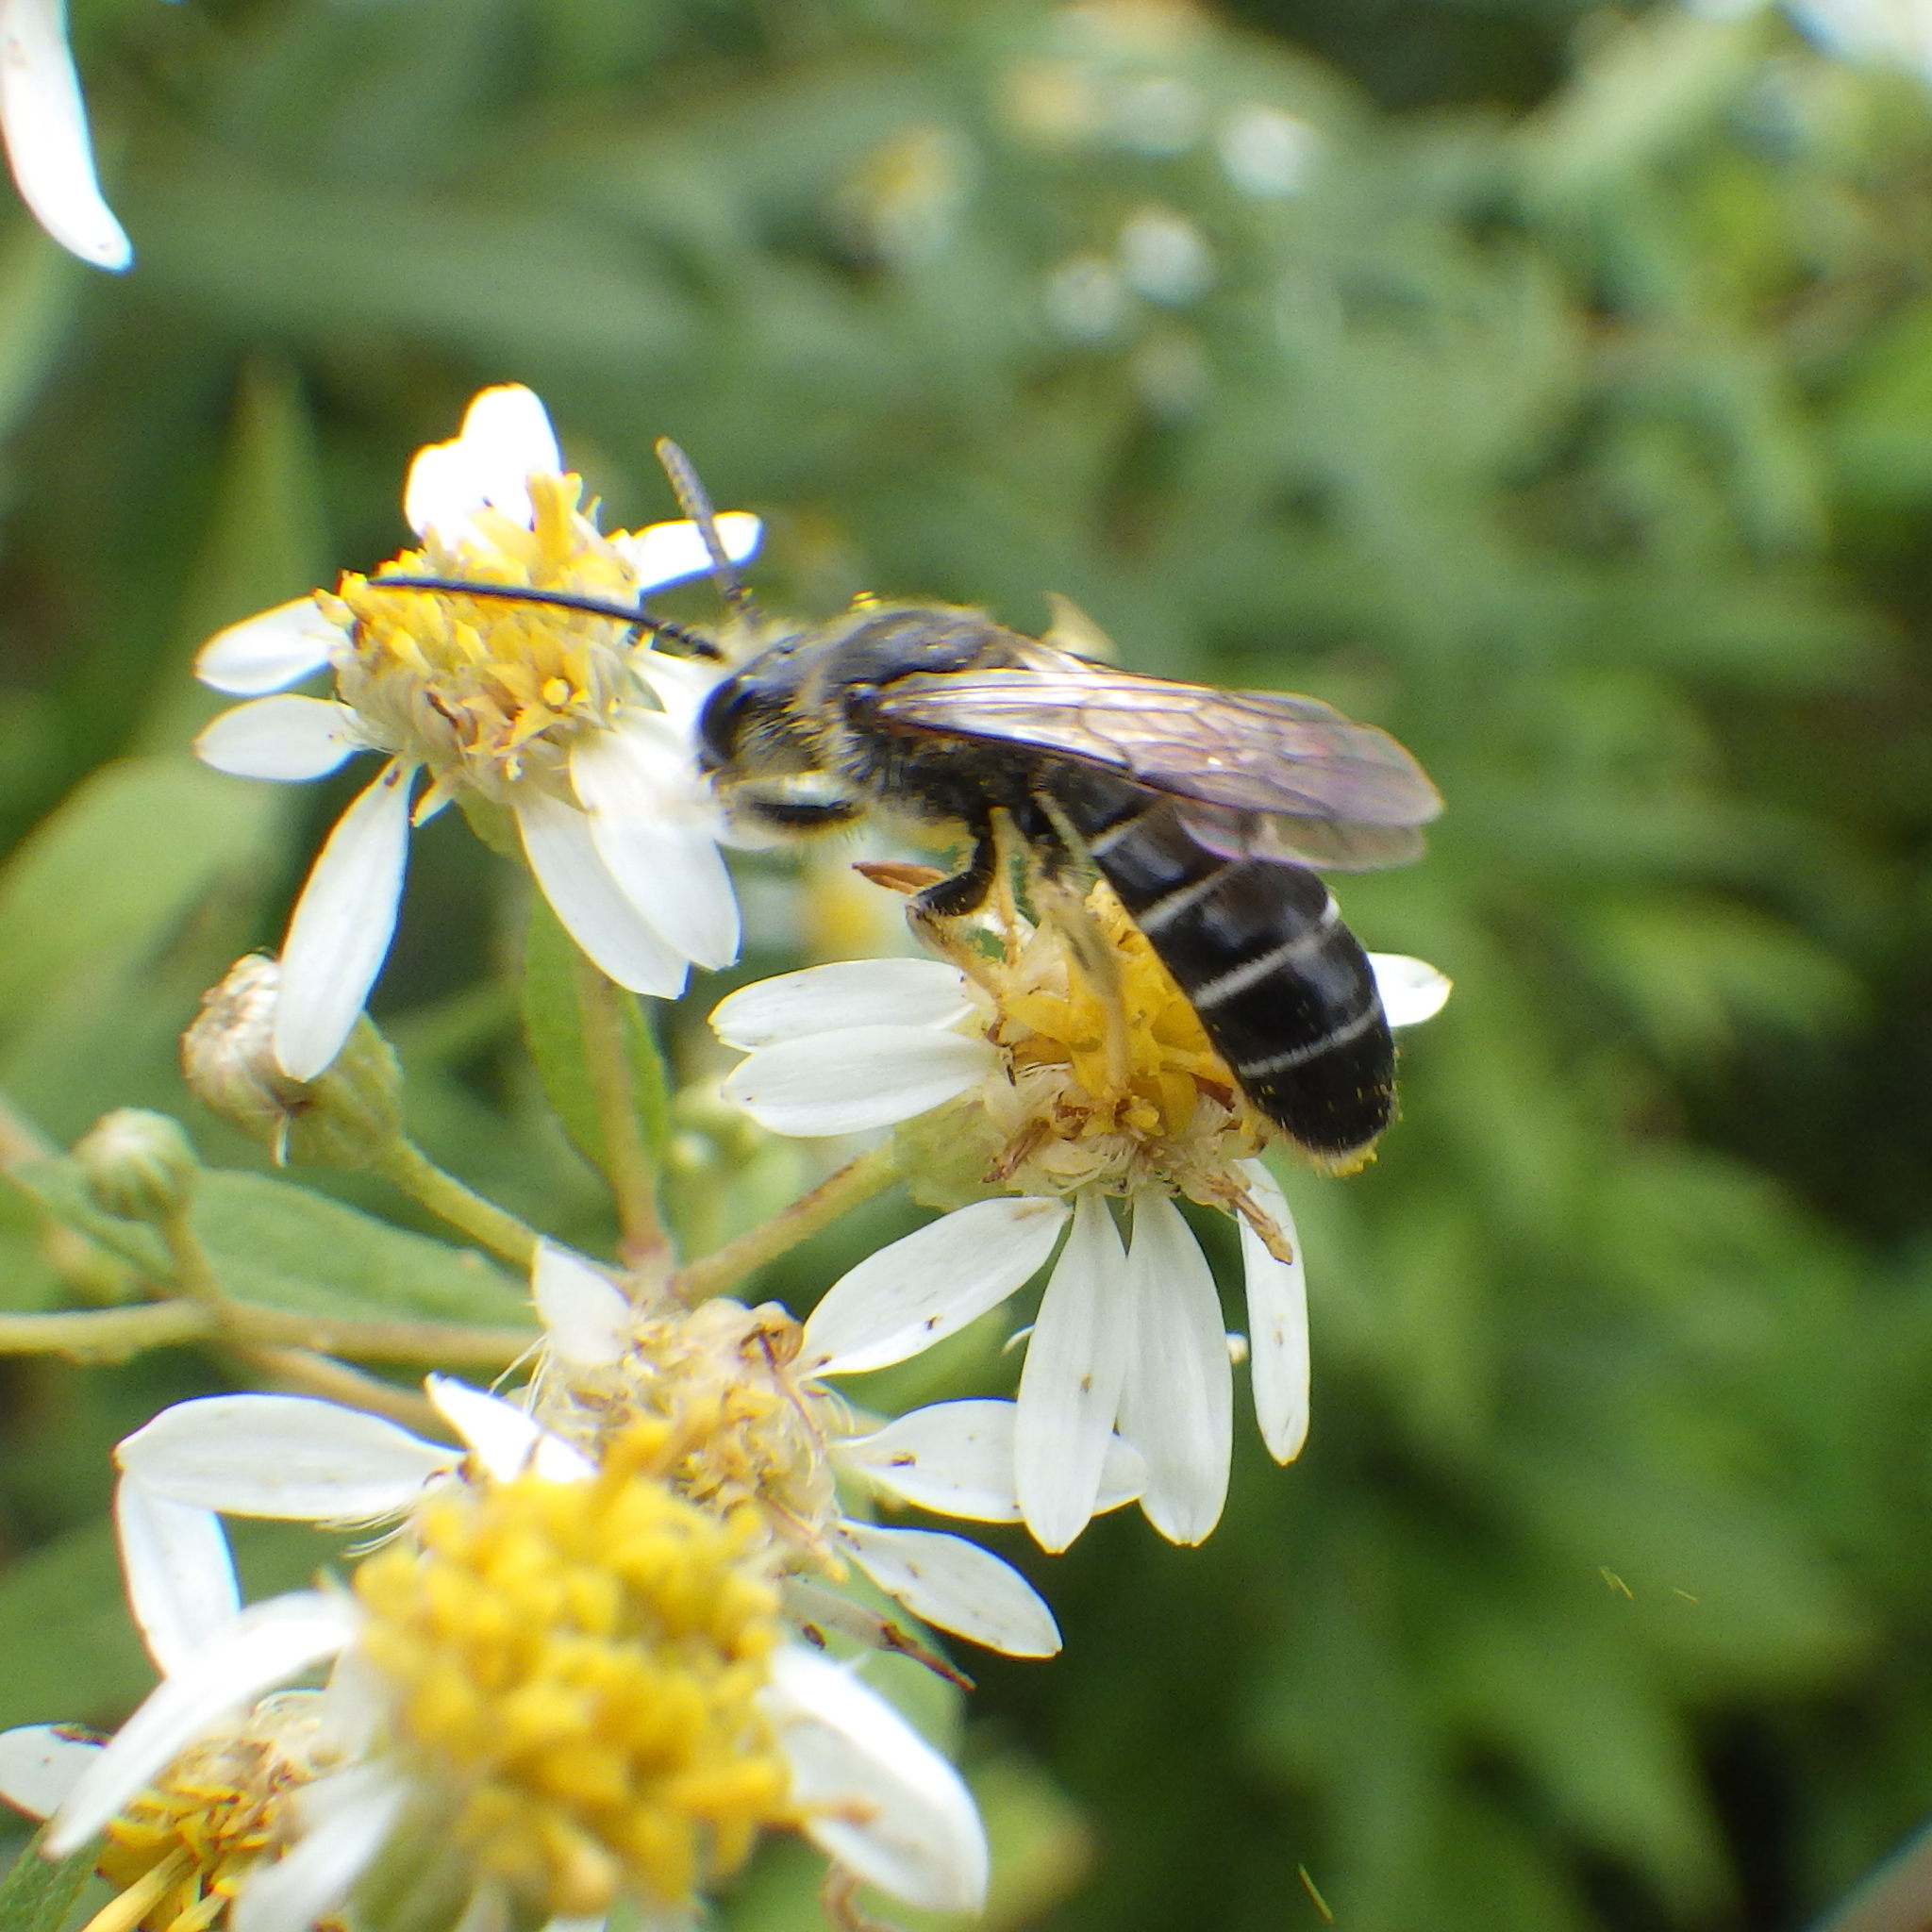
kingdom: Animalia
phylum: Arthropoda
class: Insecta
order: Hymenoptera
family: Halictidae
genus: Halictus
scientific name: Halictus rubicundus
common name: Orange-legged furrow bee
